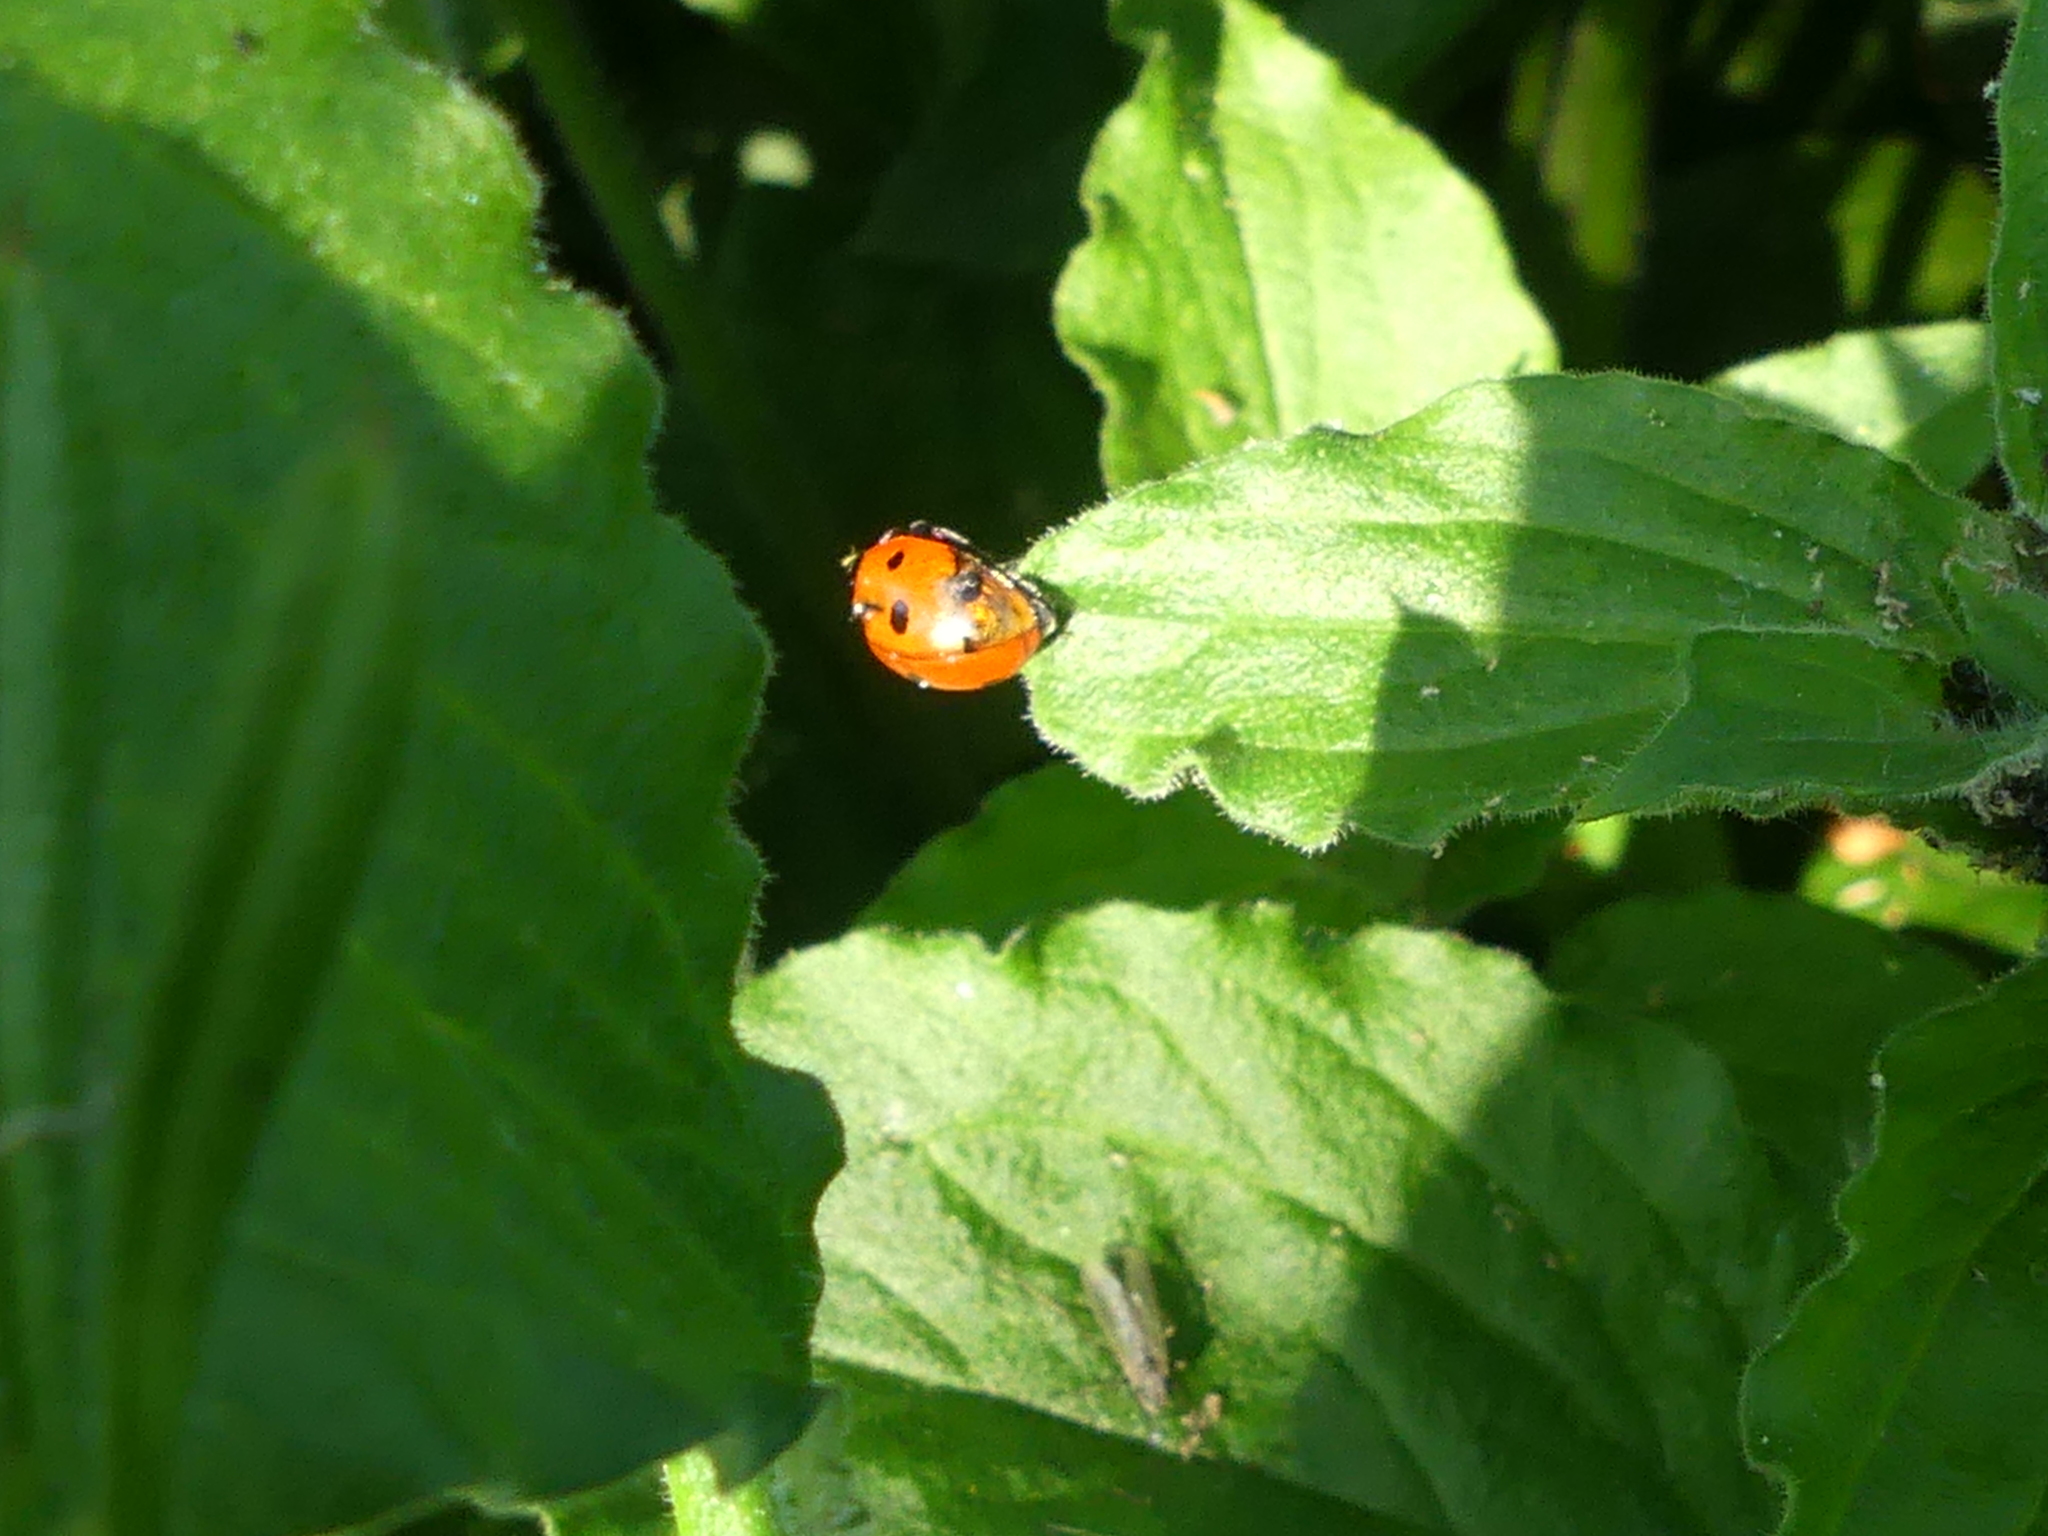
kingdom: Animalia
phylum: Arthropoda
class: Insecta
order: Coleoptera
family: Coccinellidae
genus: Coccinella
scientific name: Coccinella septempunctata
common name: Sevenspotted lady beetle
